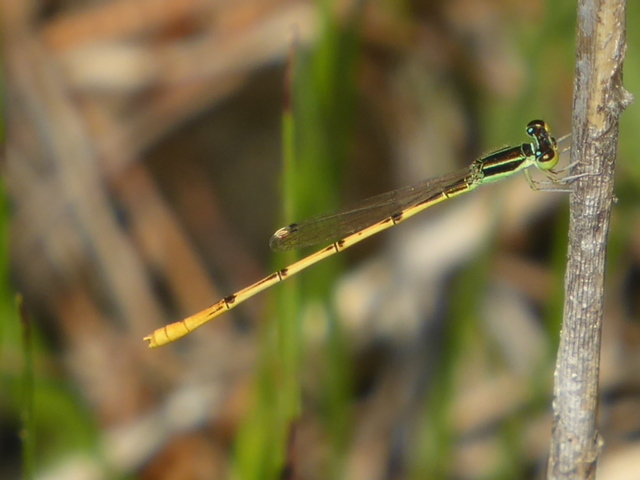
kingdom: Animalia
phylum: Arthropoda
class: Insecta
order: Odonata
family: Coenagrionidae
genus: Ischnura
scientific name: Ischnura hastata
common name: Citrine forktail
